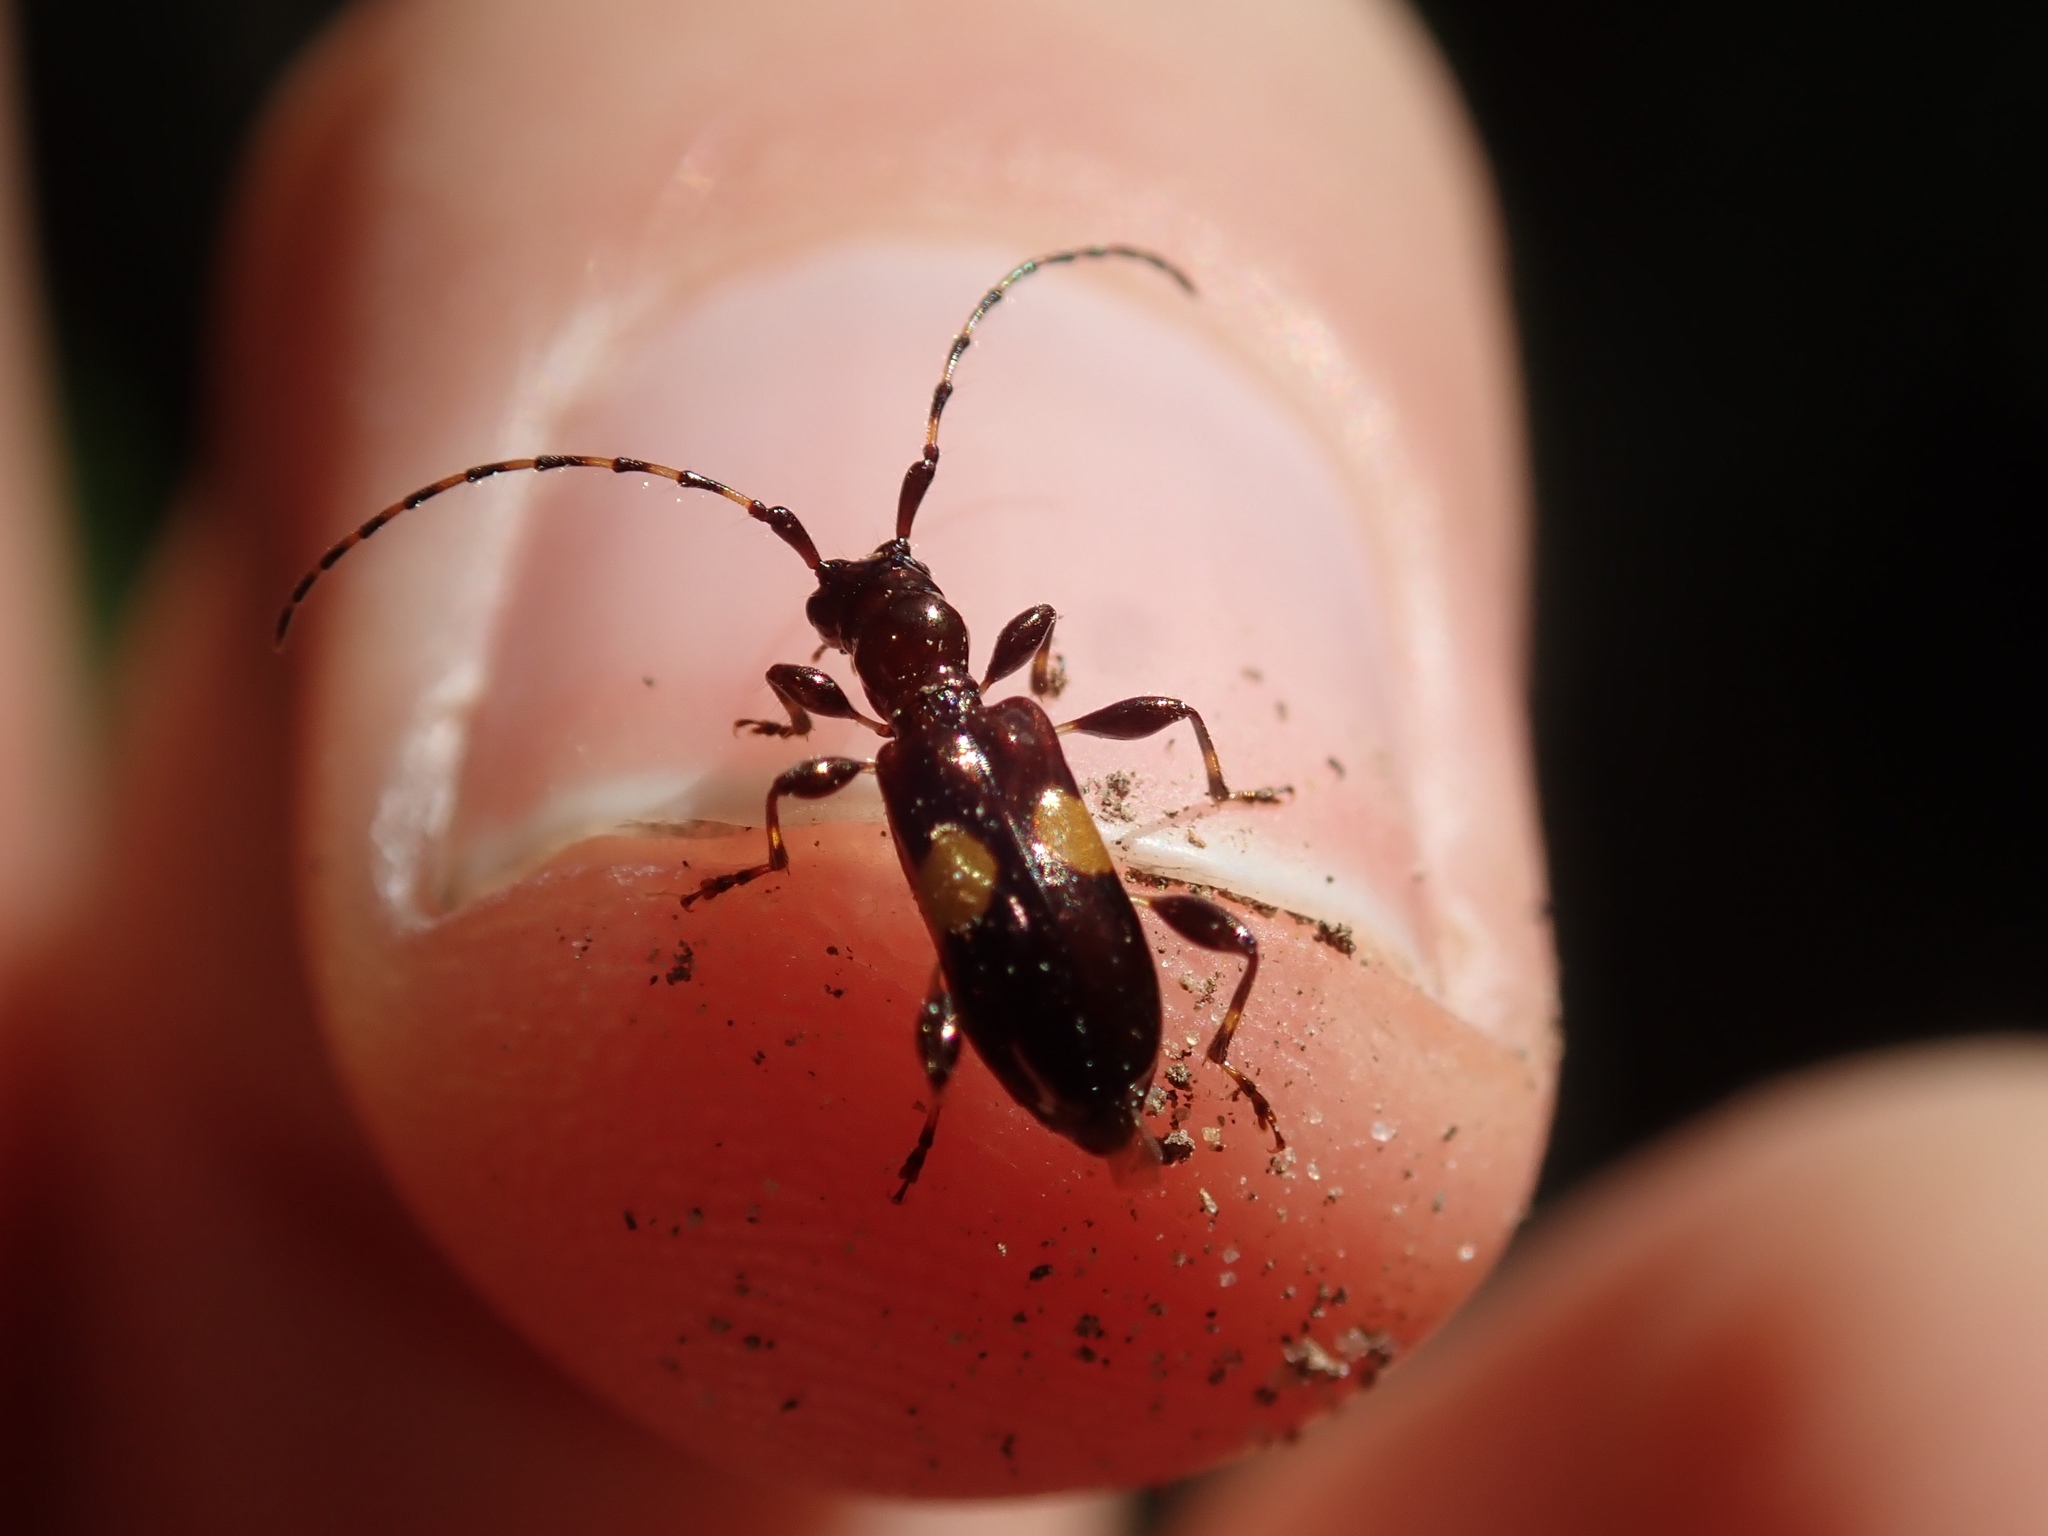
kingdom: Animalia
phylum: Arthropoda
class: Insecta
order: Coleoptera
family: Cerambycidae
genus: Zorion
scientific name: Zorion guttigerum
